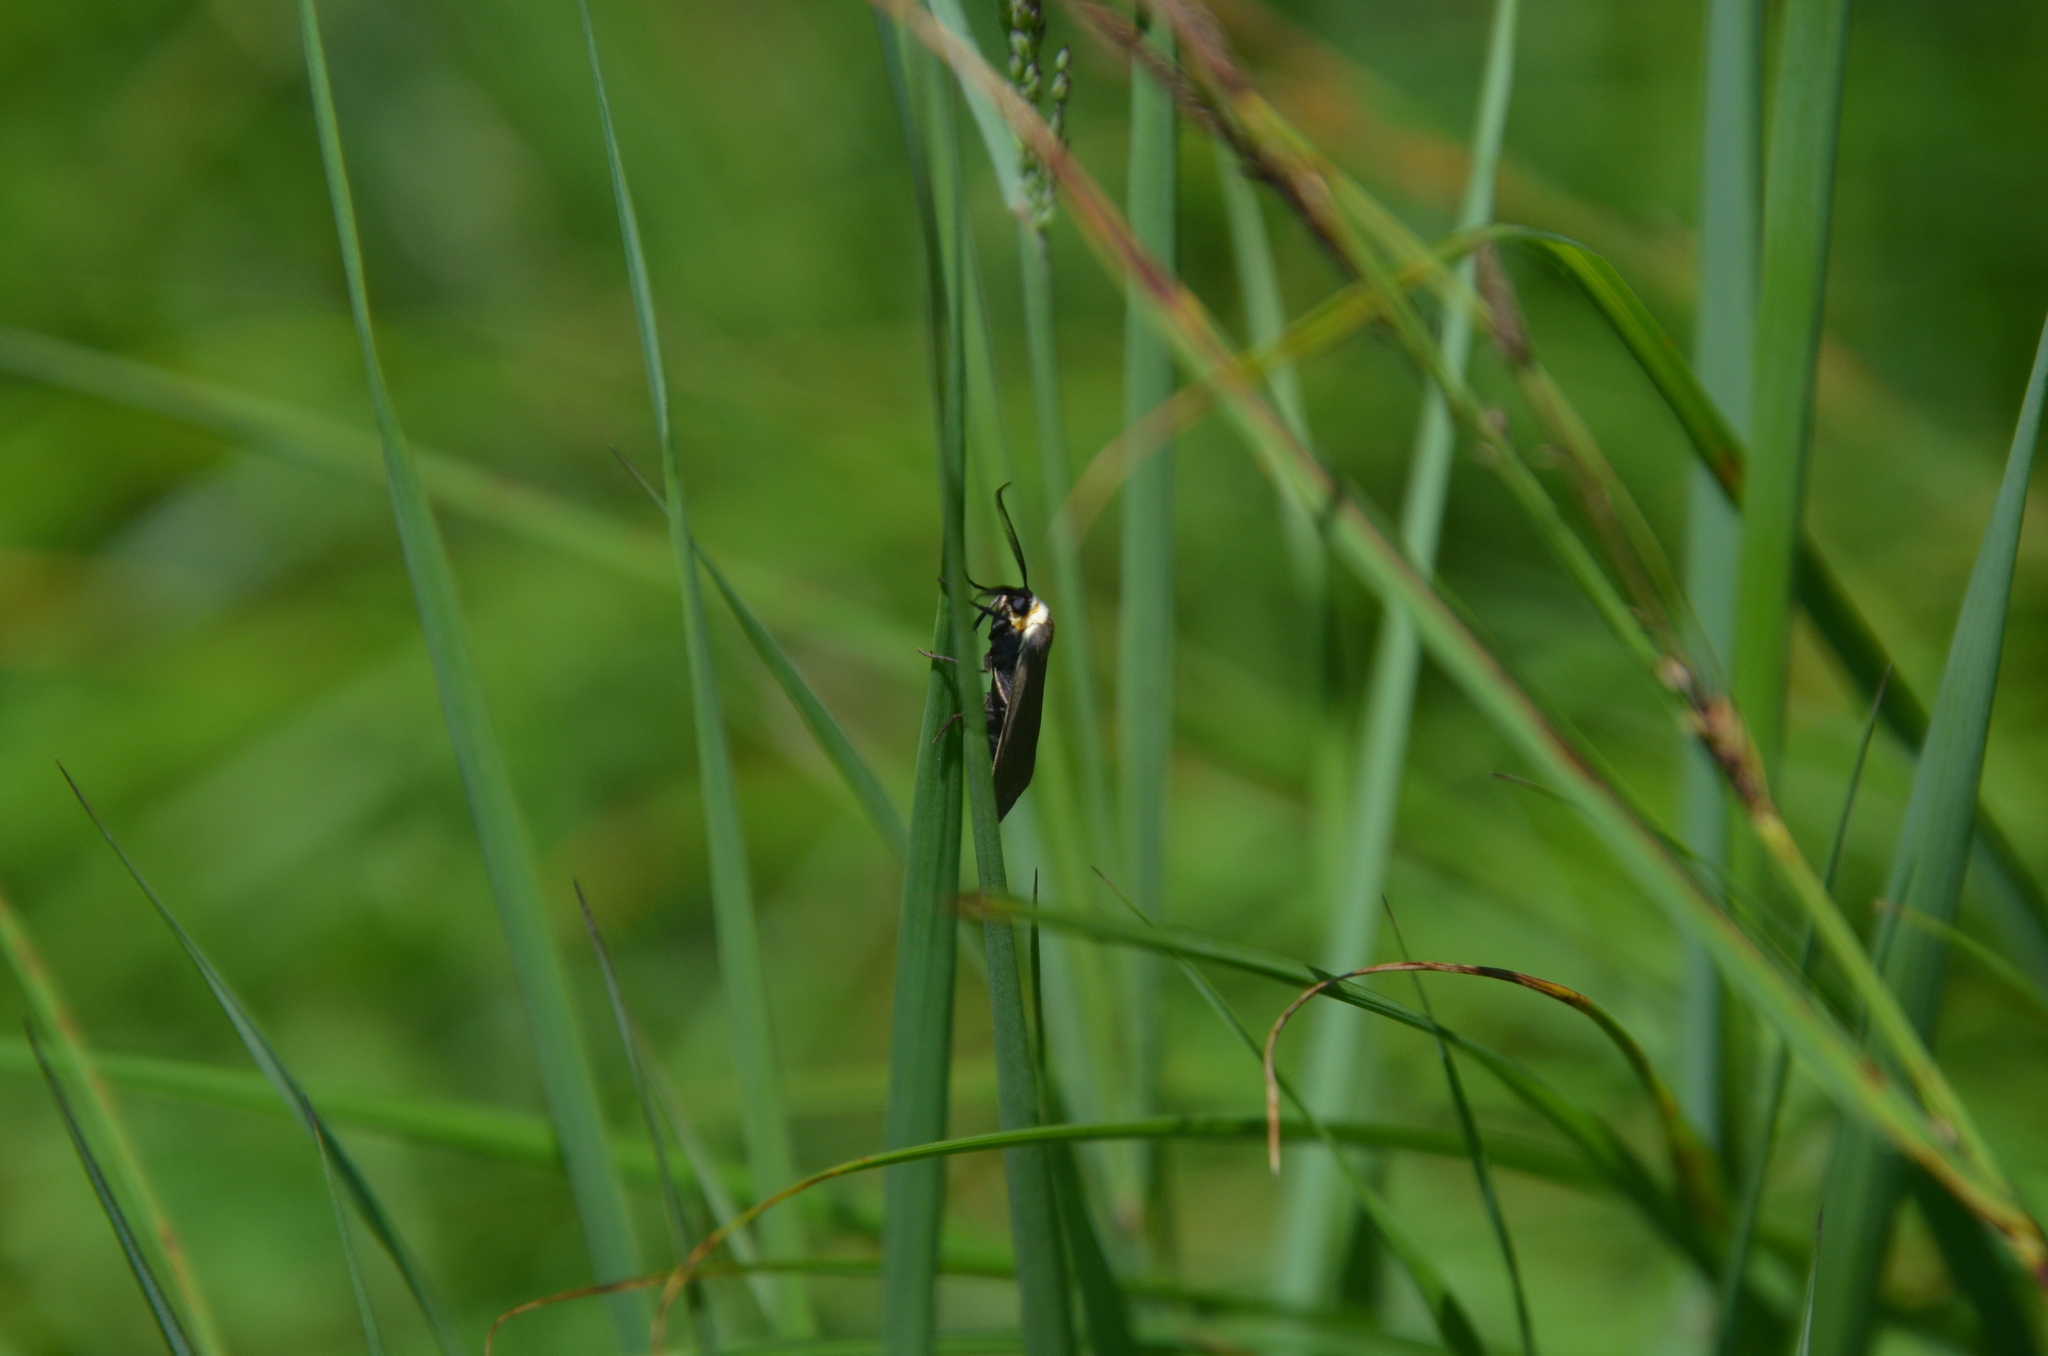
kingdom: Animalia
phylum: Arthropoda
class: Insecta
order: Lepidoptera
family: Erebidae
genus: Cisseps
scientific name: Cisseps fulvicollis
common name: Yellow-collared scape moth
